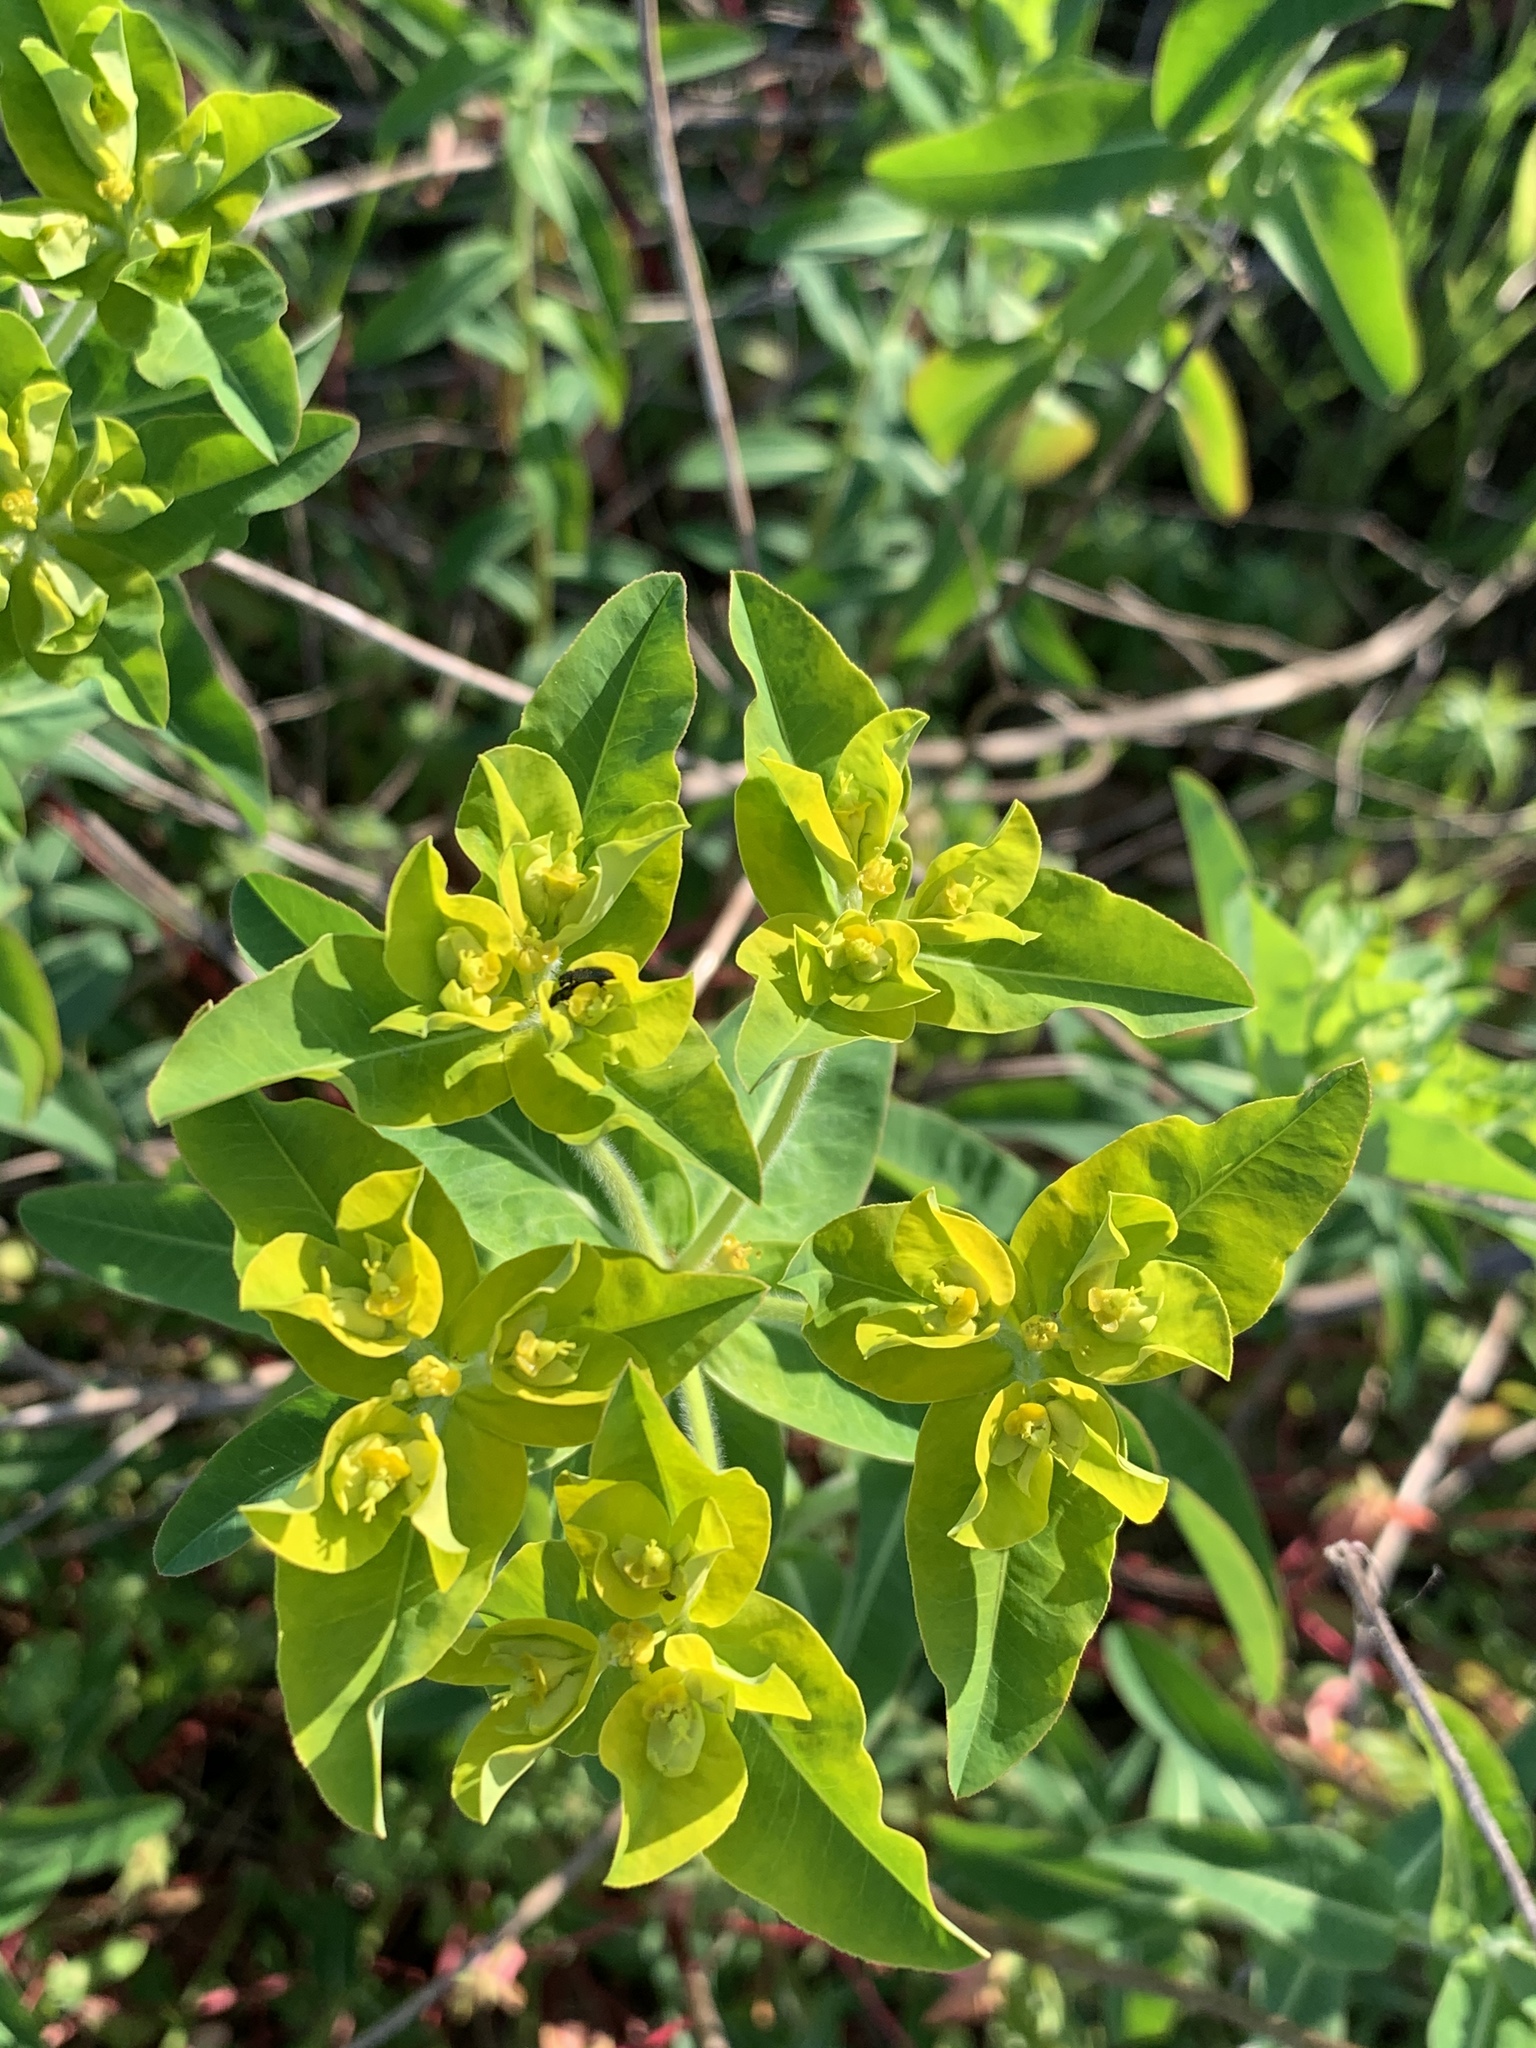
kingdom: Plantae
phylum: Tracheophyta
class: Magnoliopsida
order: Malpighiales
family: Euphorbiaceae
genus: Euphorbia
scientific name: Euphorbia oblongata
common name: Balkan spurge
